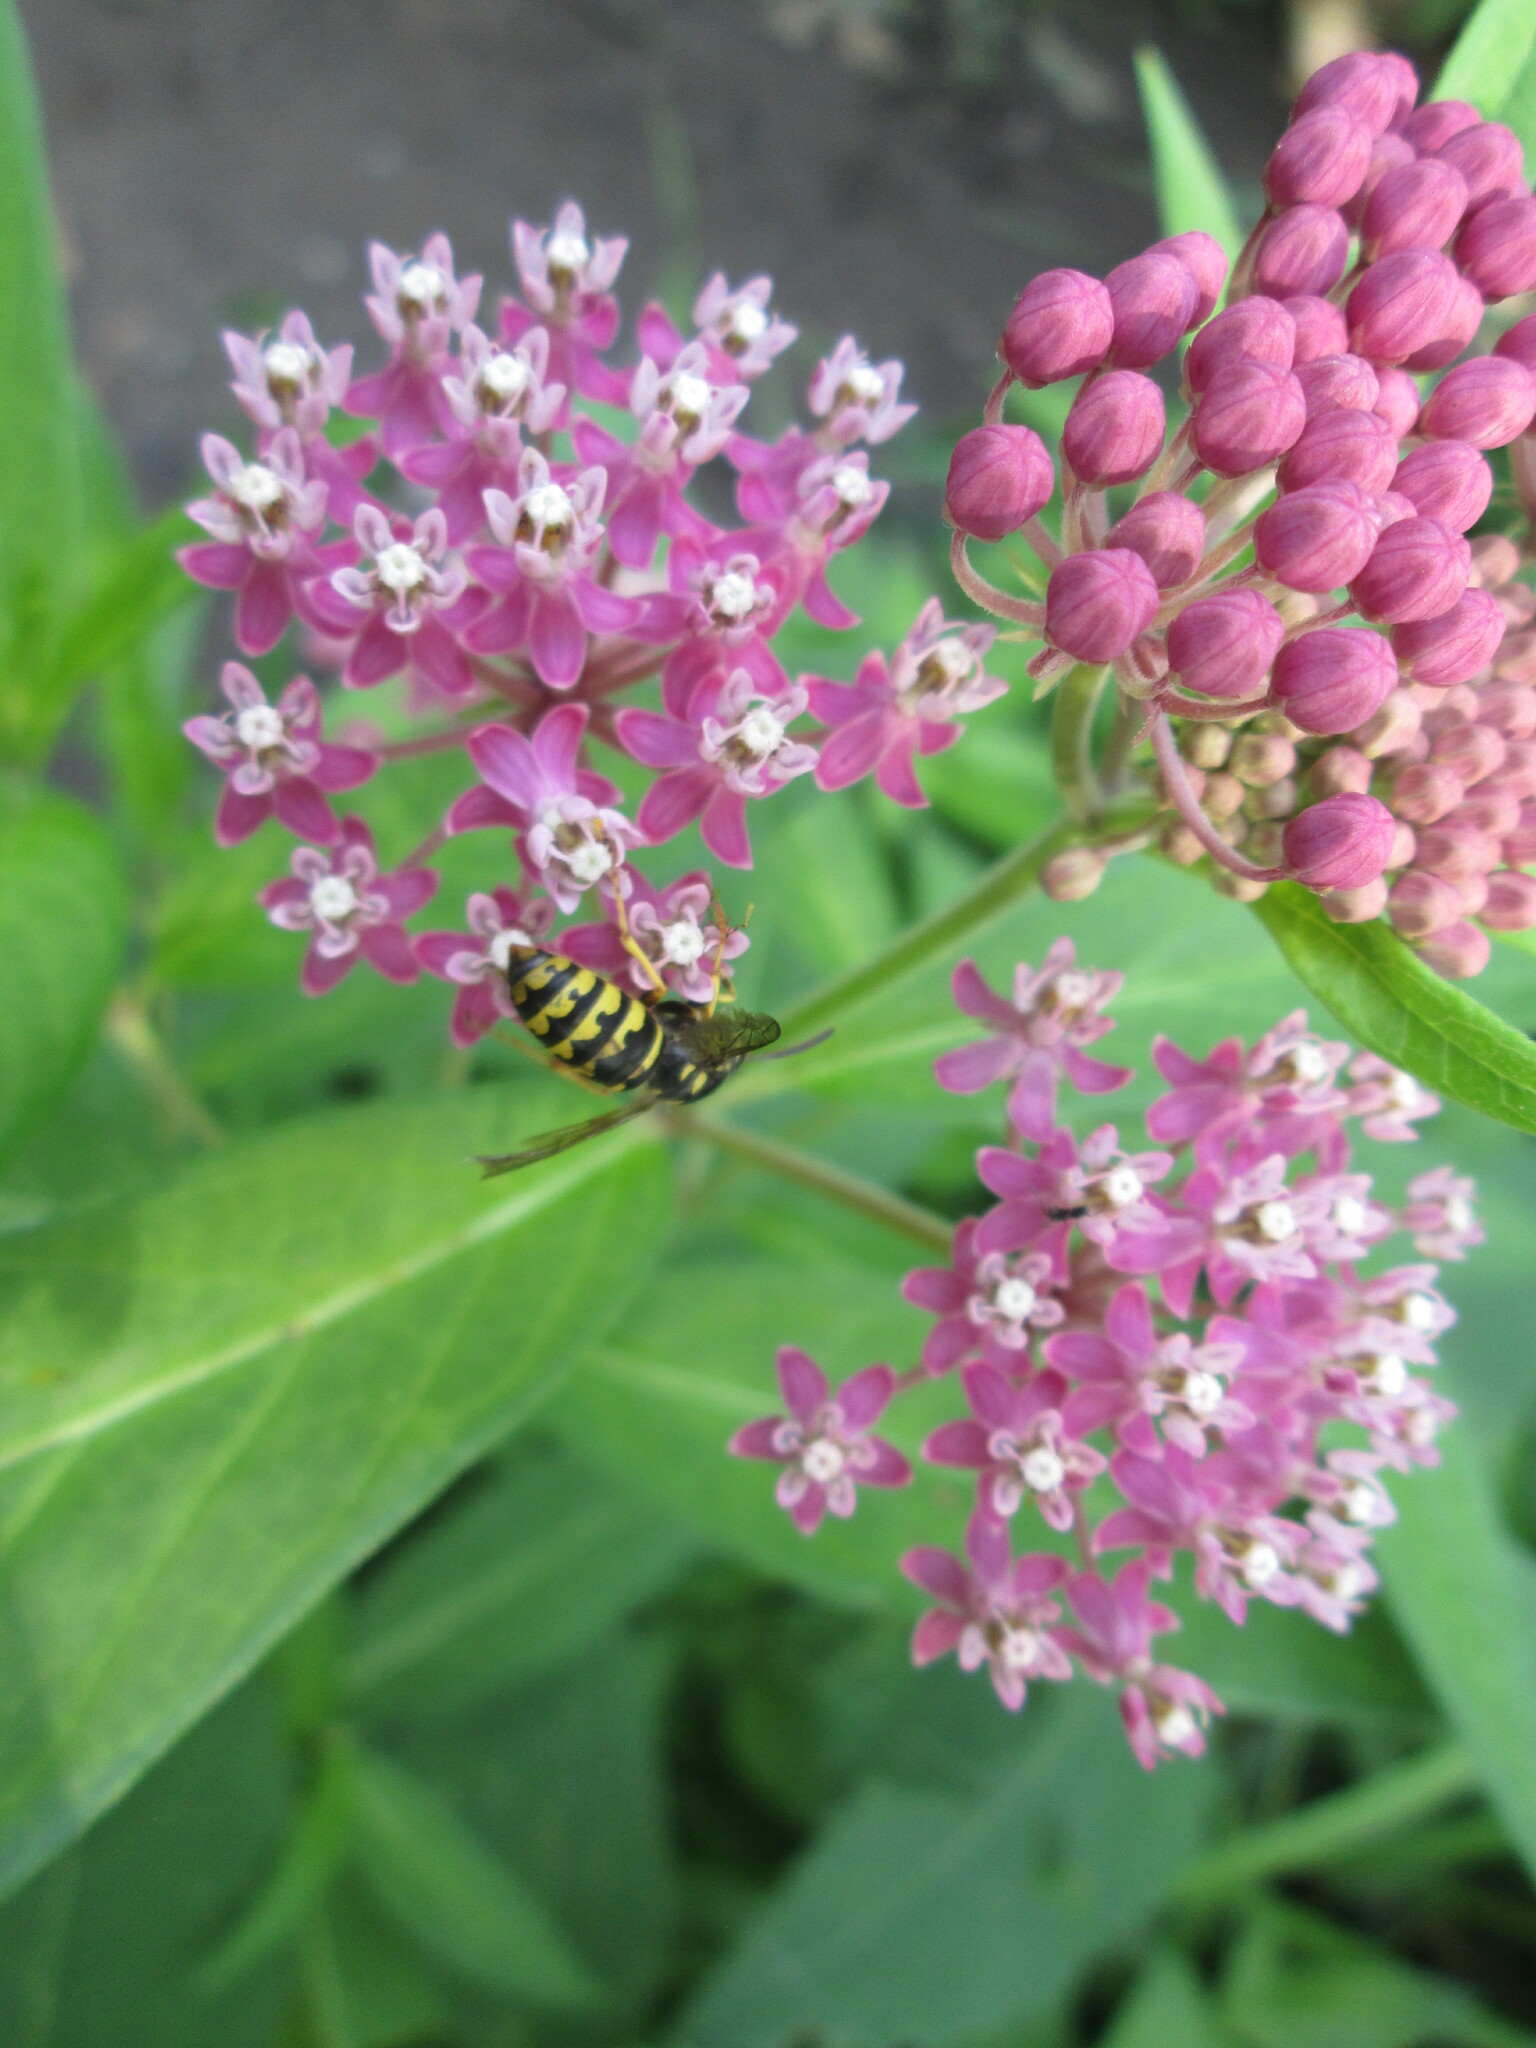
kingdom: Animalia
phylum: Arthropoda
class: Insecta
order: Hymenoptera
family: Vespidae
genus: Dolichovespula
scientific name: Dolichovespula arenaria
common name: Aerial yellowjacket
